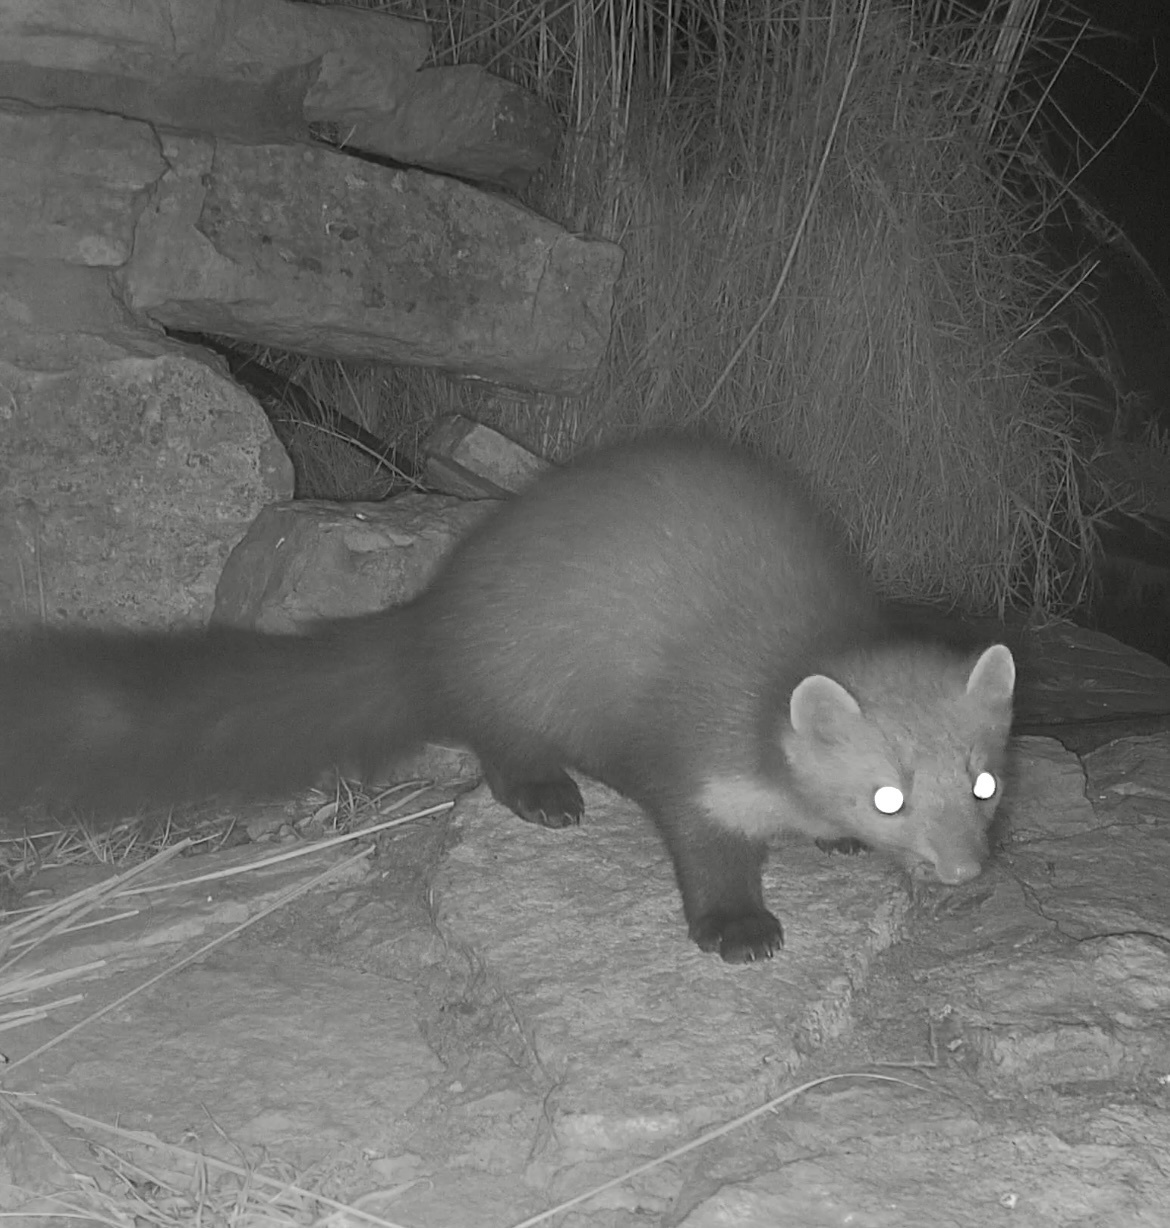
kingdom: Animalia
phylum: Chordata
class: Mammalia
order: Carnivora
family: Mustelidae
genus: Martes
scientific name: Martes foina
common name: Beech marten
